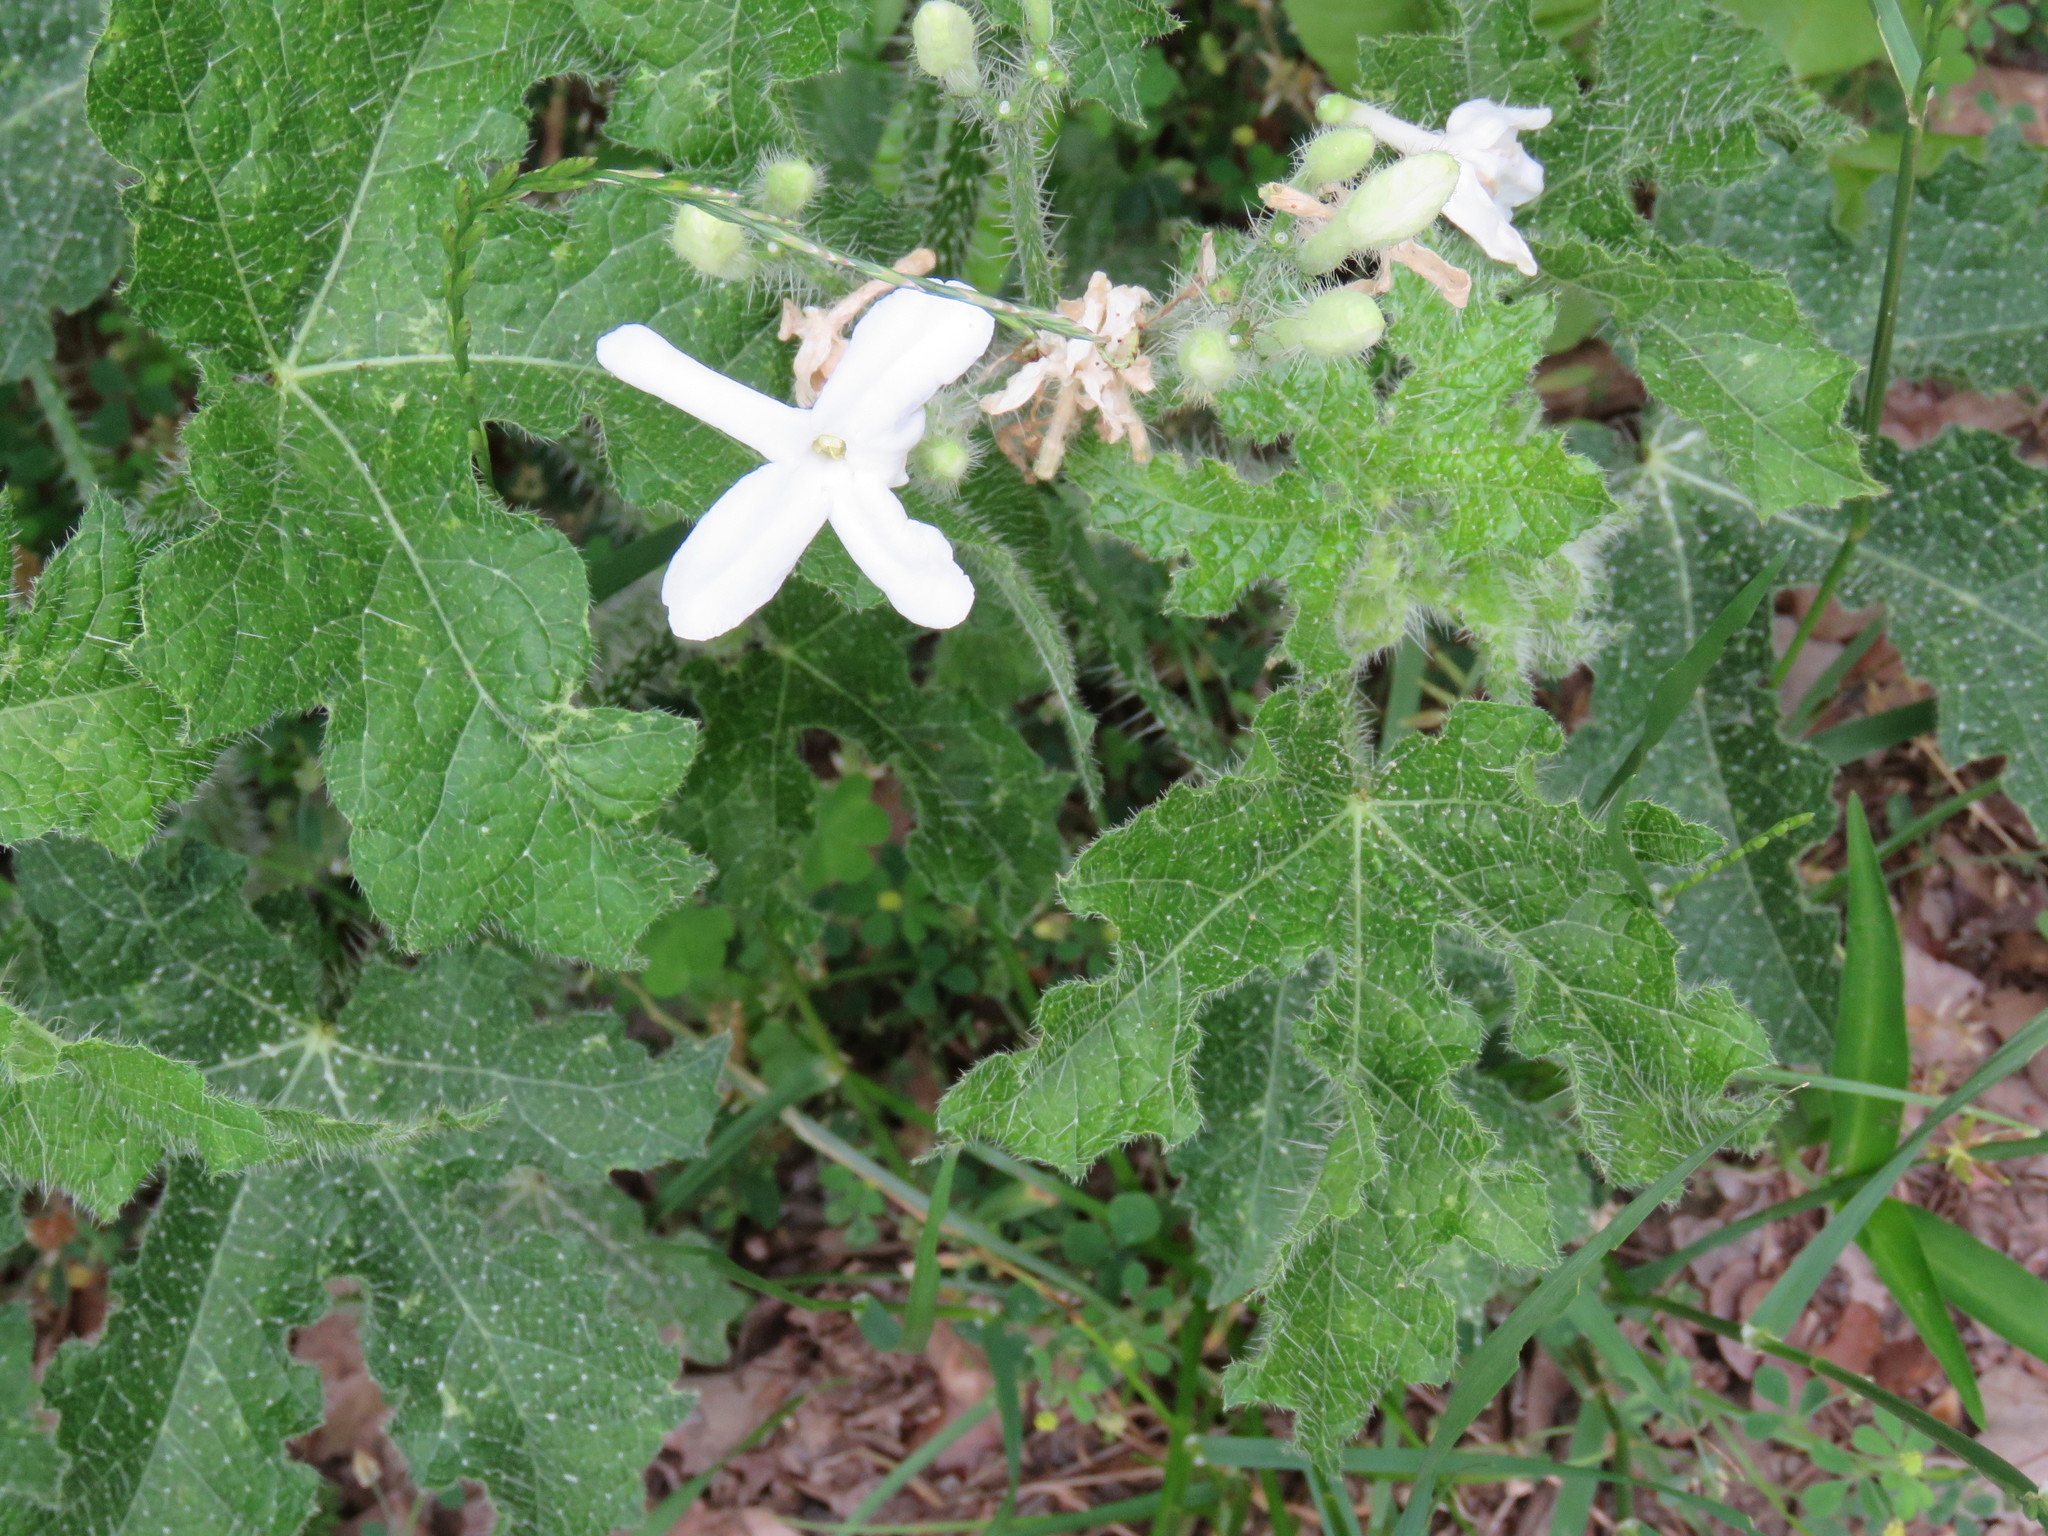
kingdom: Plantae
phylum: Tracheophyta
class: Magnoliopsida
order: Malpighiales
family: Euphorbiaceae
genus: Cnidoscolus
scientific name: Cnidoscolus texanus
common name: Texas bull-nettle
